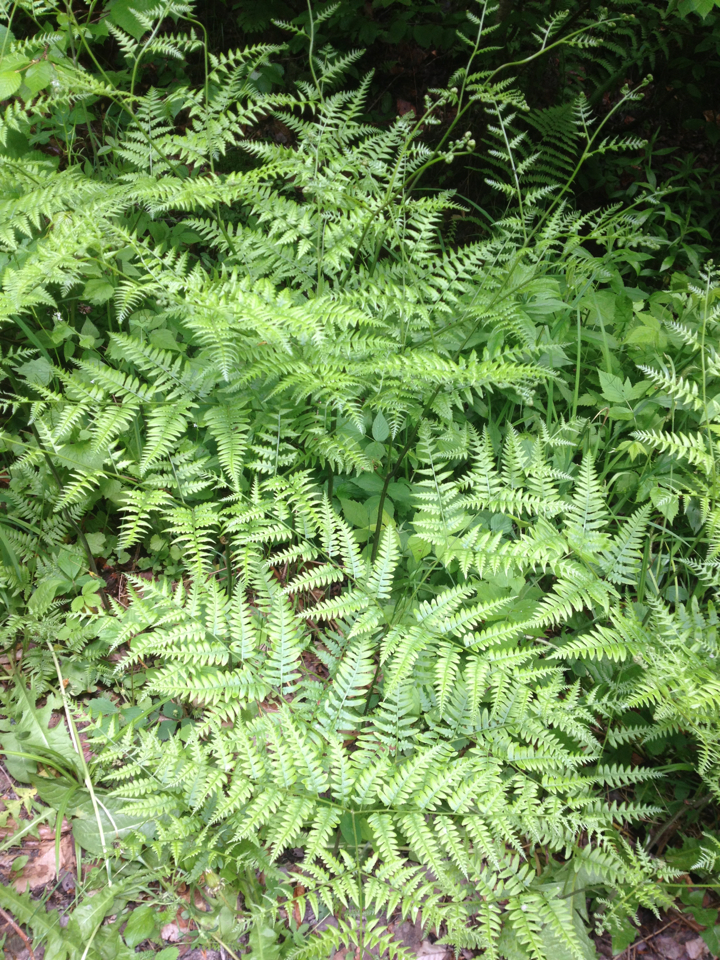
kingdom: Plantae
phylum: Tracheophyta
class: Polypodiopsida
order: Polypodiales
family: Dennstaedtiaceae
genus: Pteridium
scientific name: Pteridium aquilinum
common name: Bracken
